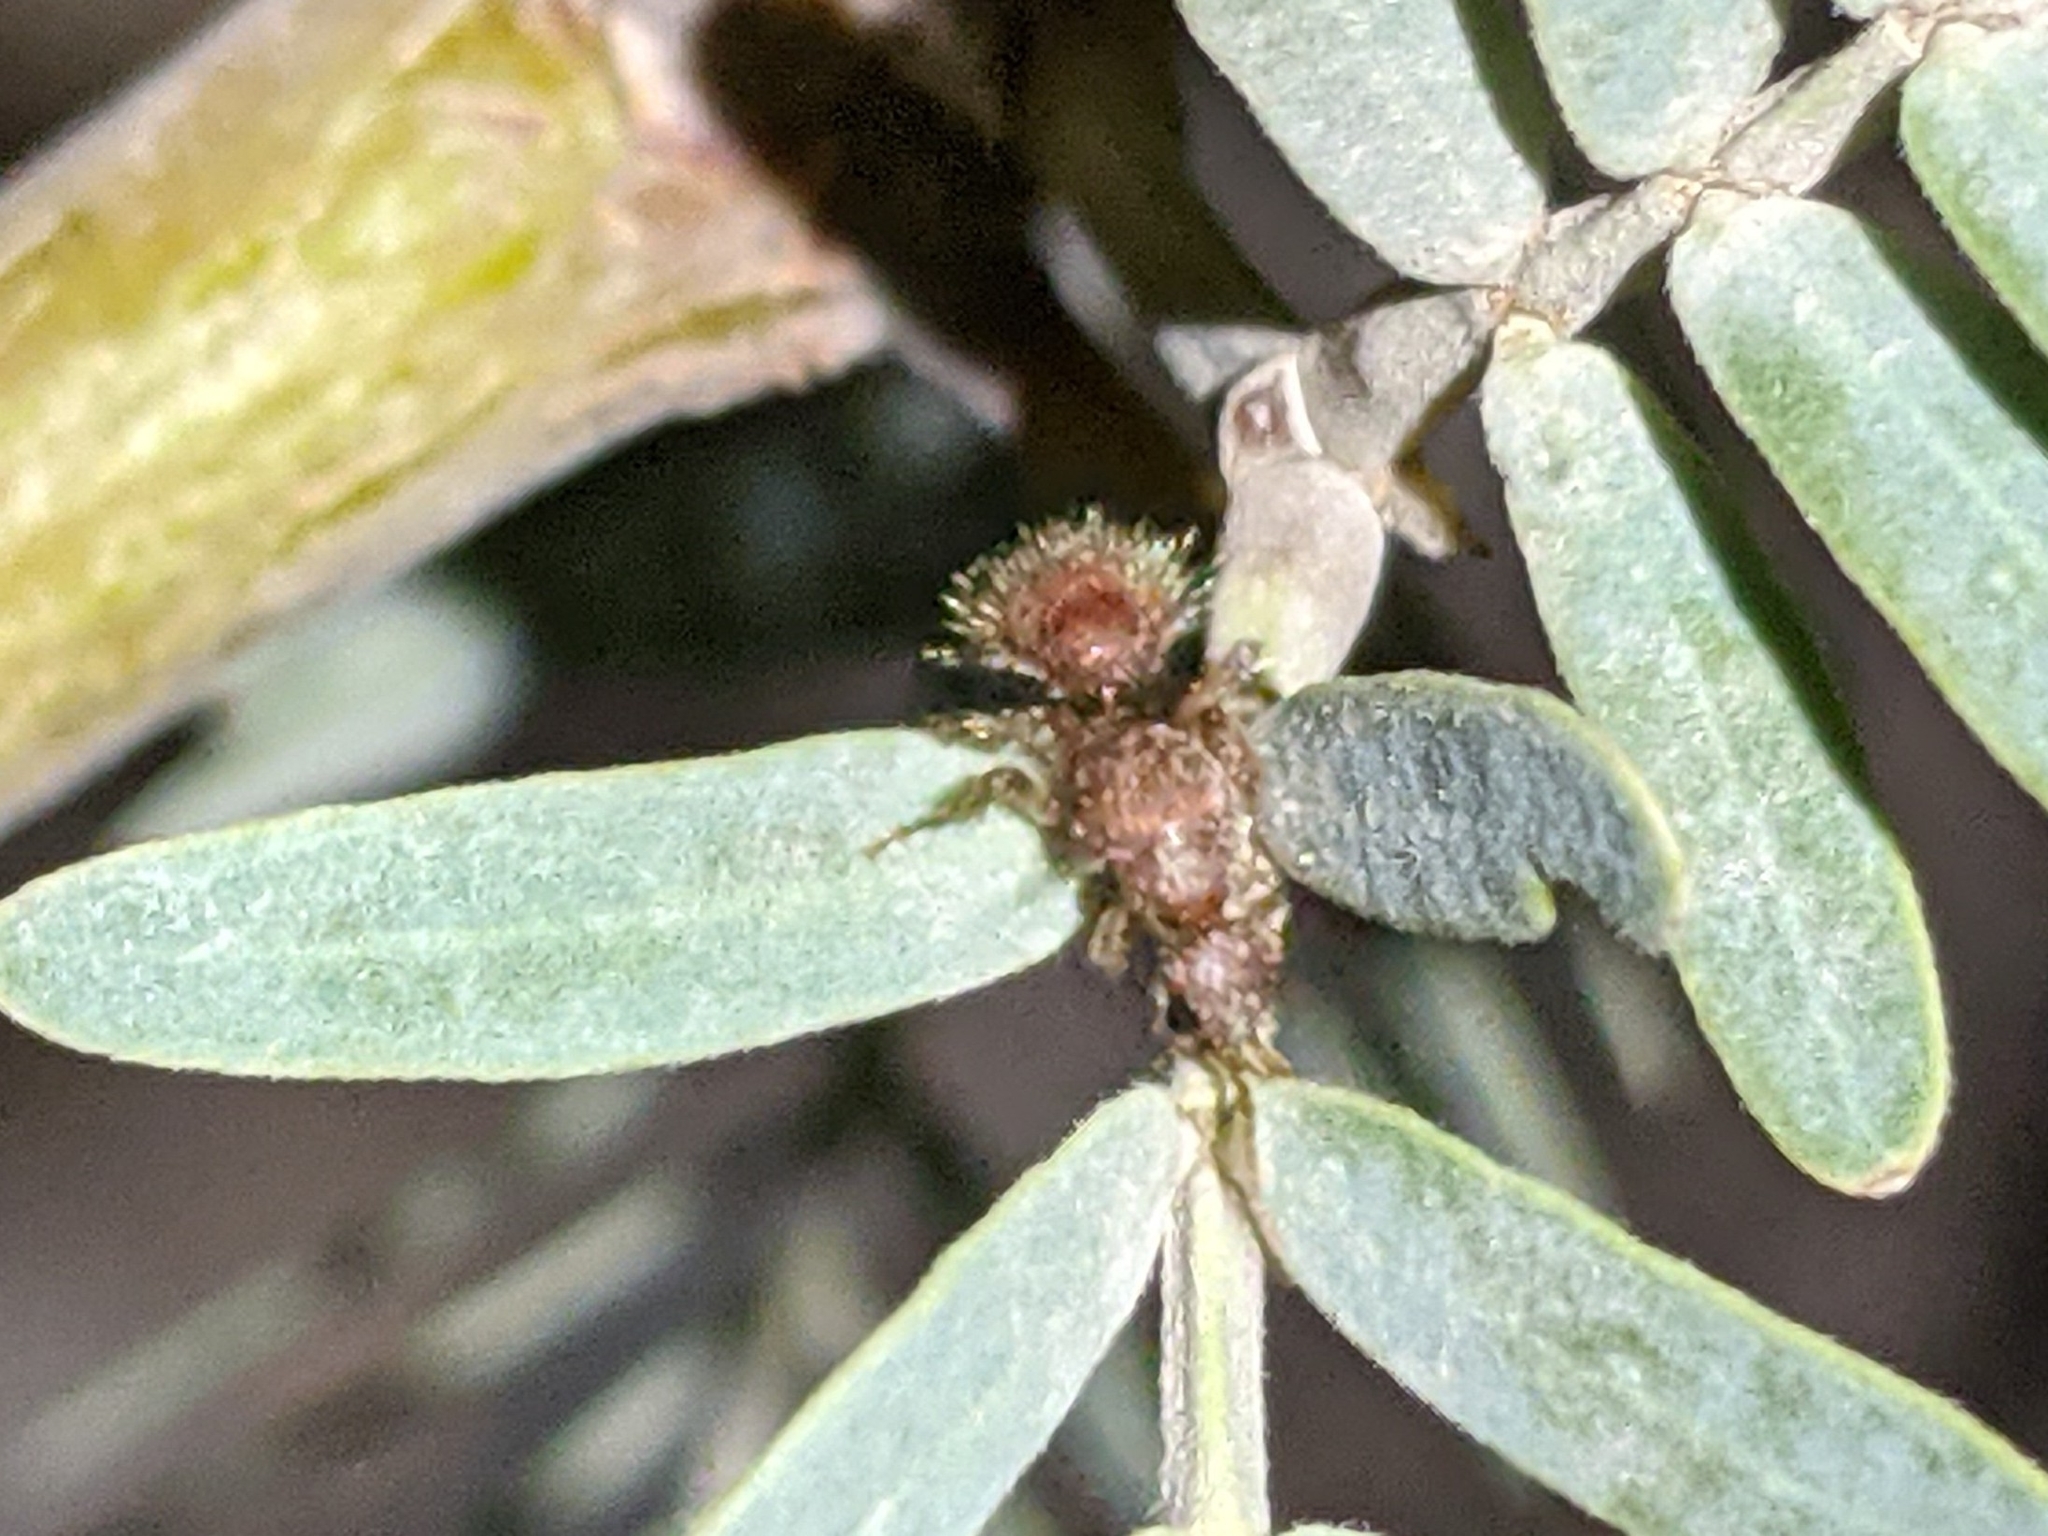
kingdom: Animalia
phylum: Arthropoda
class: Insecta
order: Hymenoptera
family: Chyphotidae
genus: Chyphotes
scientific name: Chyphotes
